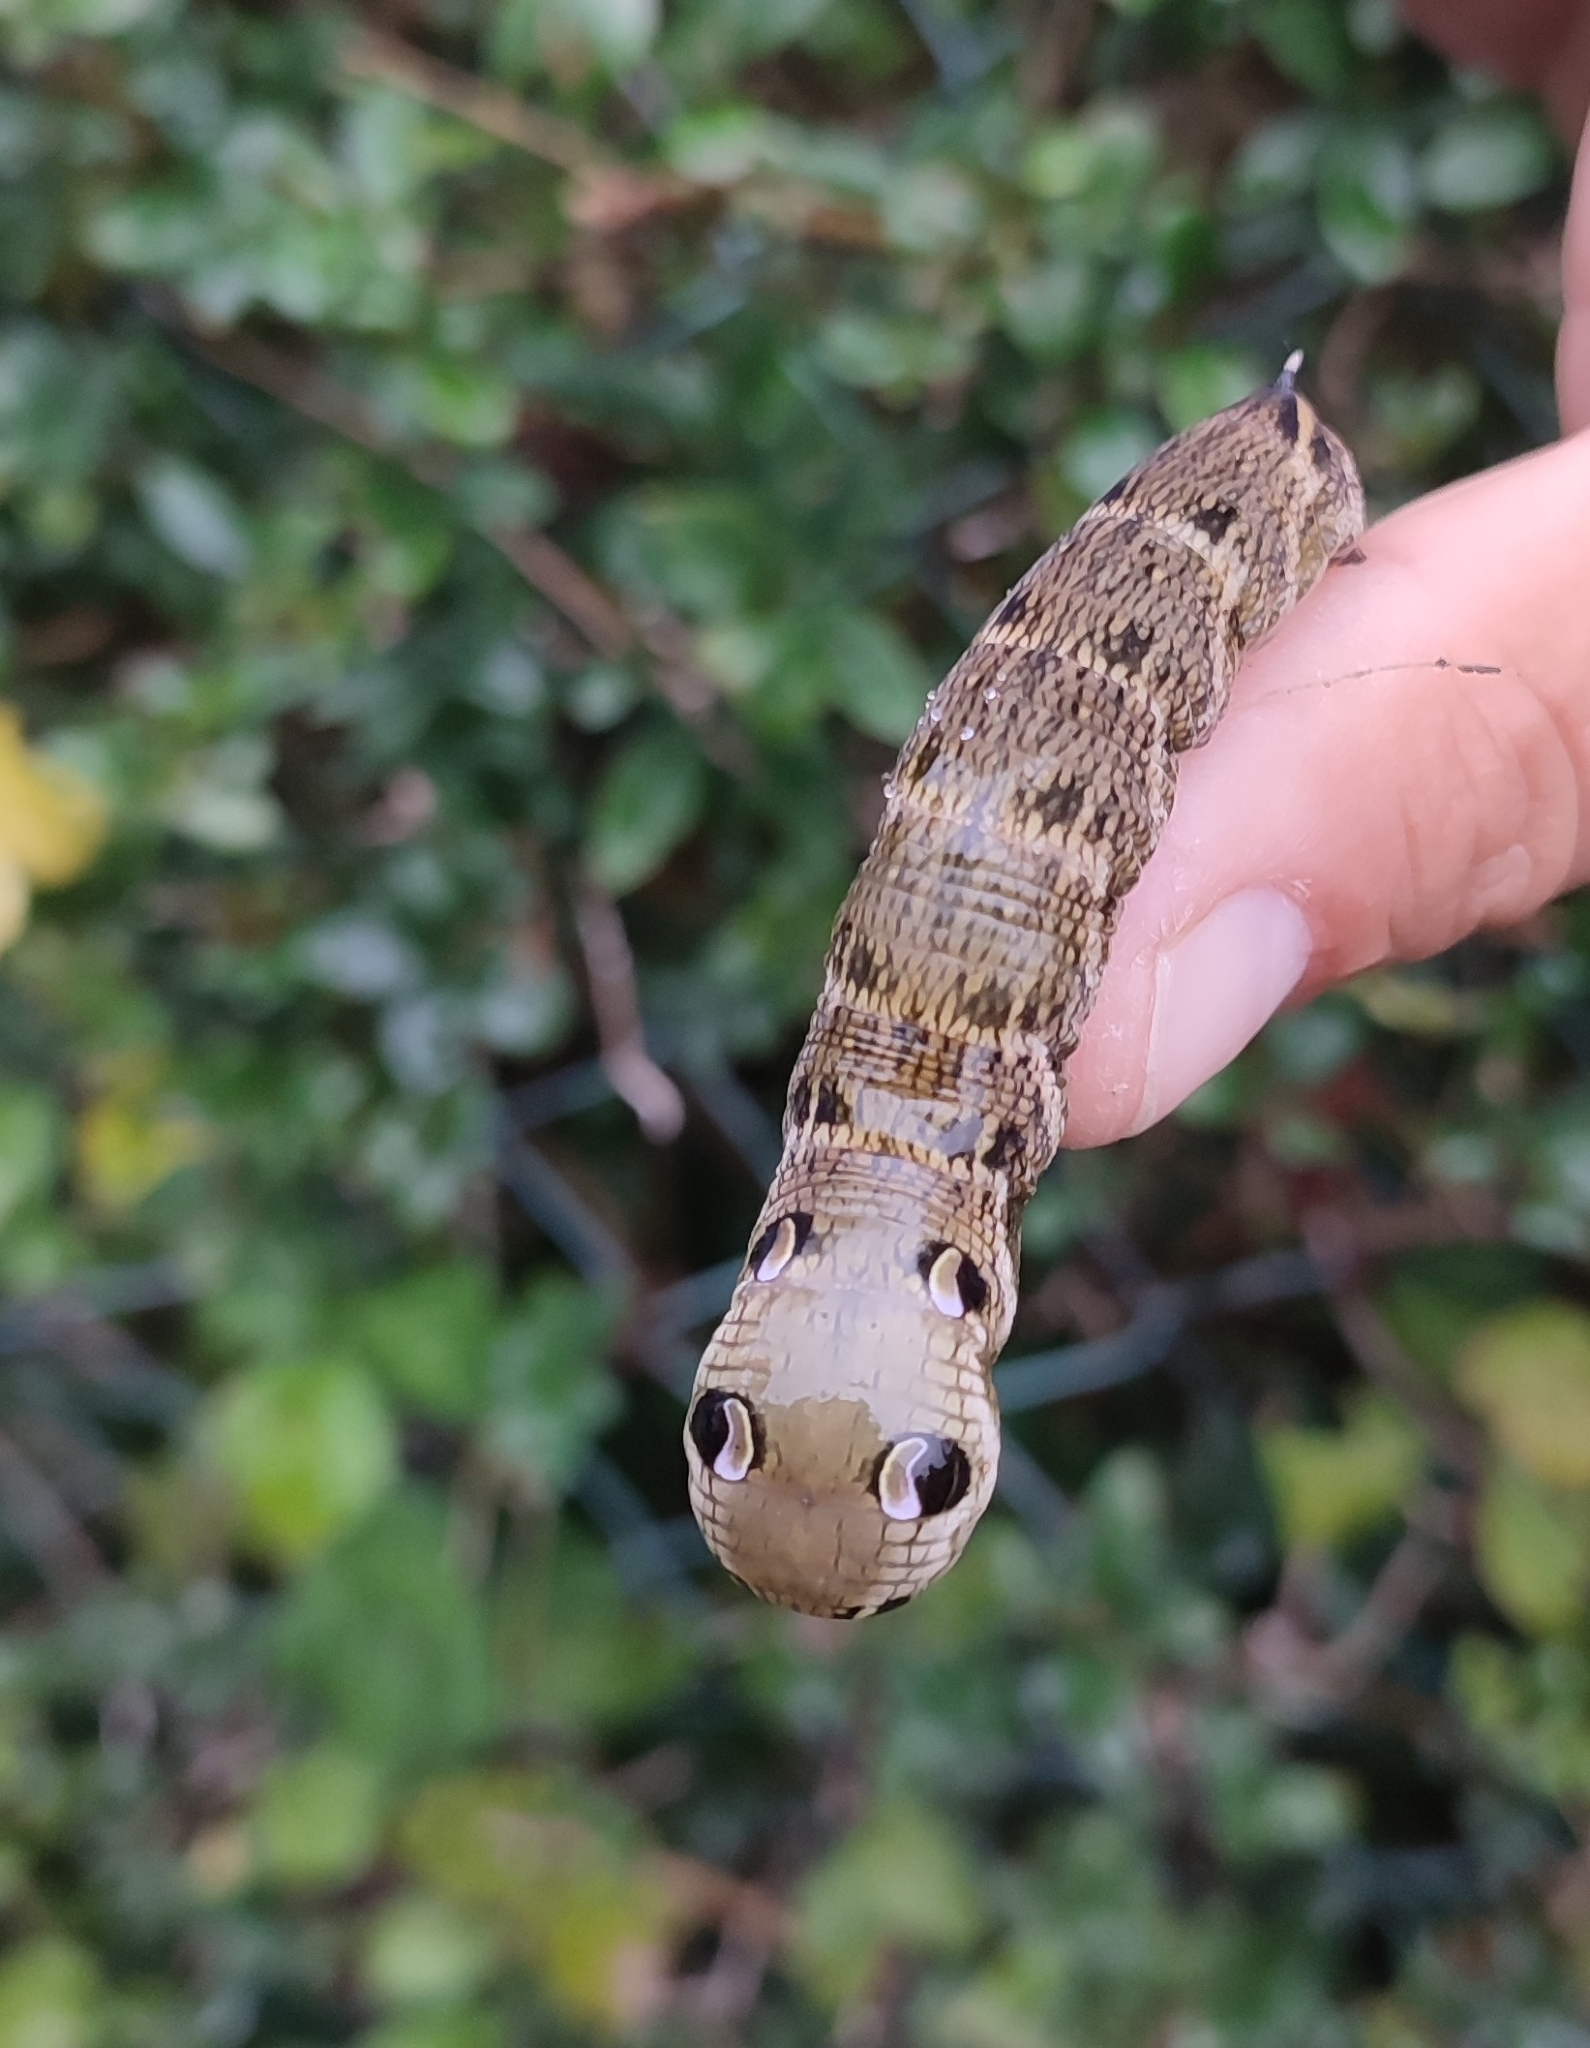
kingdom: Animalia
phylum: Arthropoda
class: Insecta
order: Lepidoptera
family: Sphingidae
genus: Deilephila
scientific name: Deilephila elpenor
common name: Elephant hawk-moth
